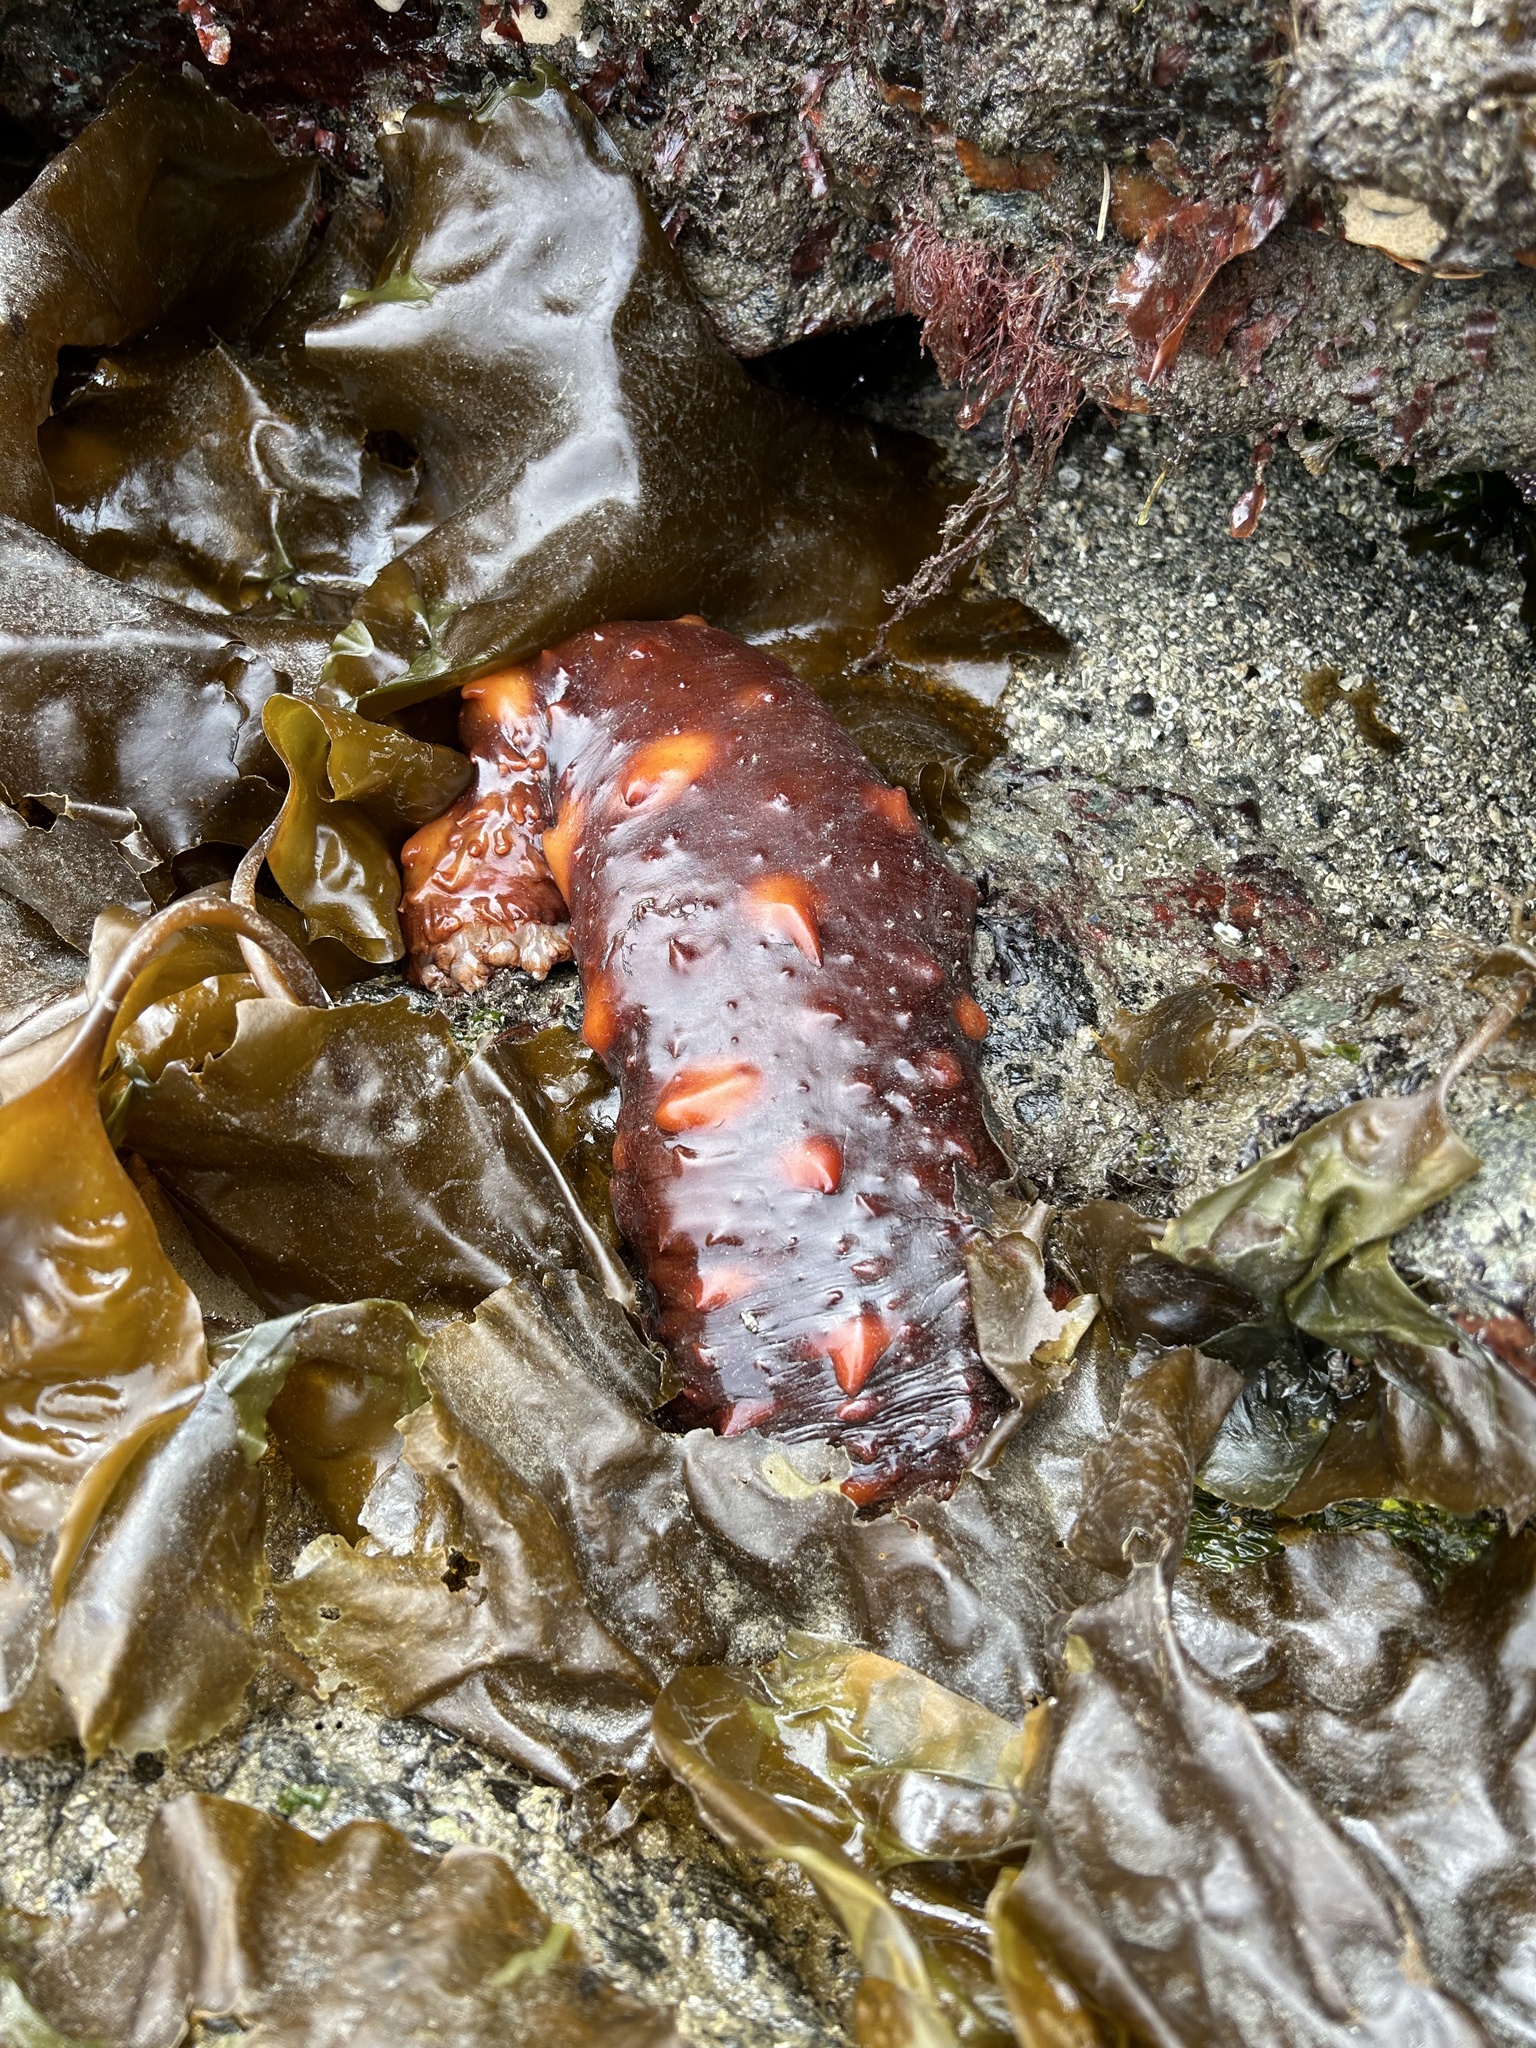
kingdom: Animalia
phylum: Echinodermata
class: Holothuroidea
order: Synallactida
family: Stichopodidae
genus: Apostichopus
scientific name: Apostichopus californicus
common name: California sea cucumber
